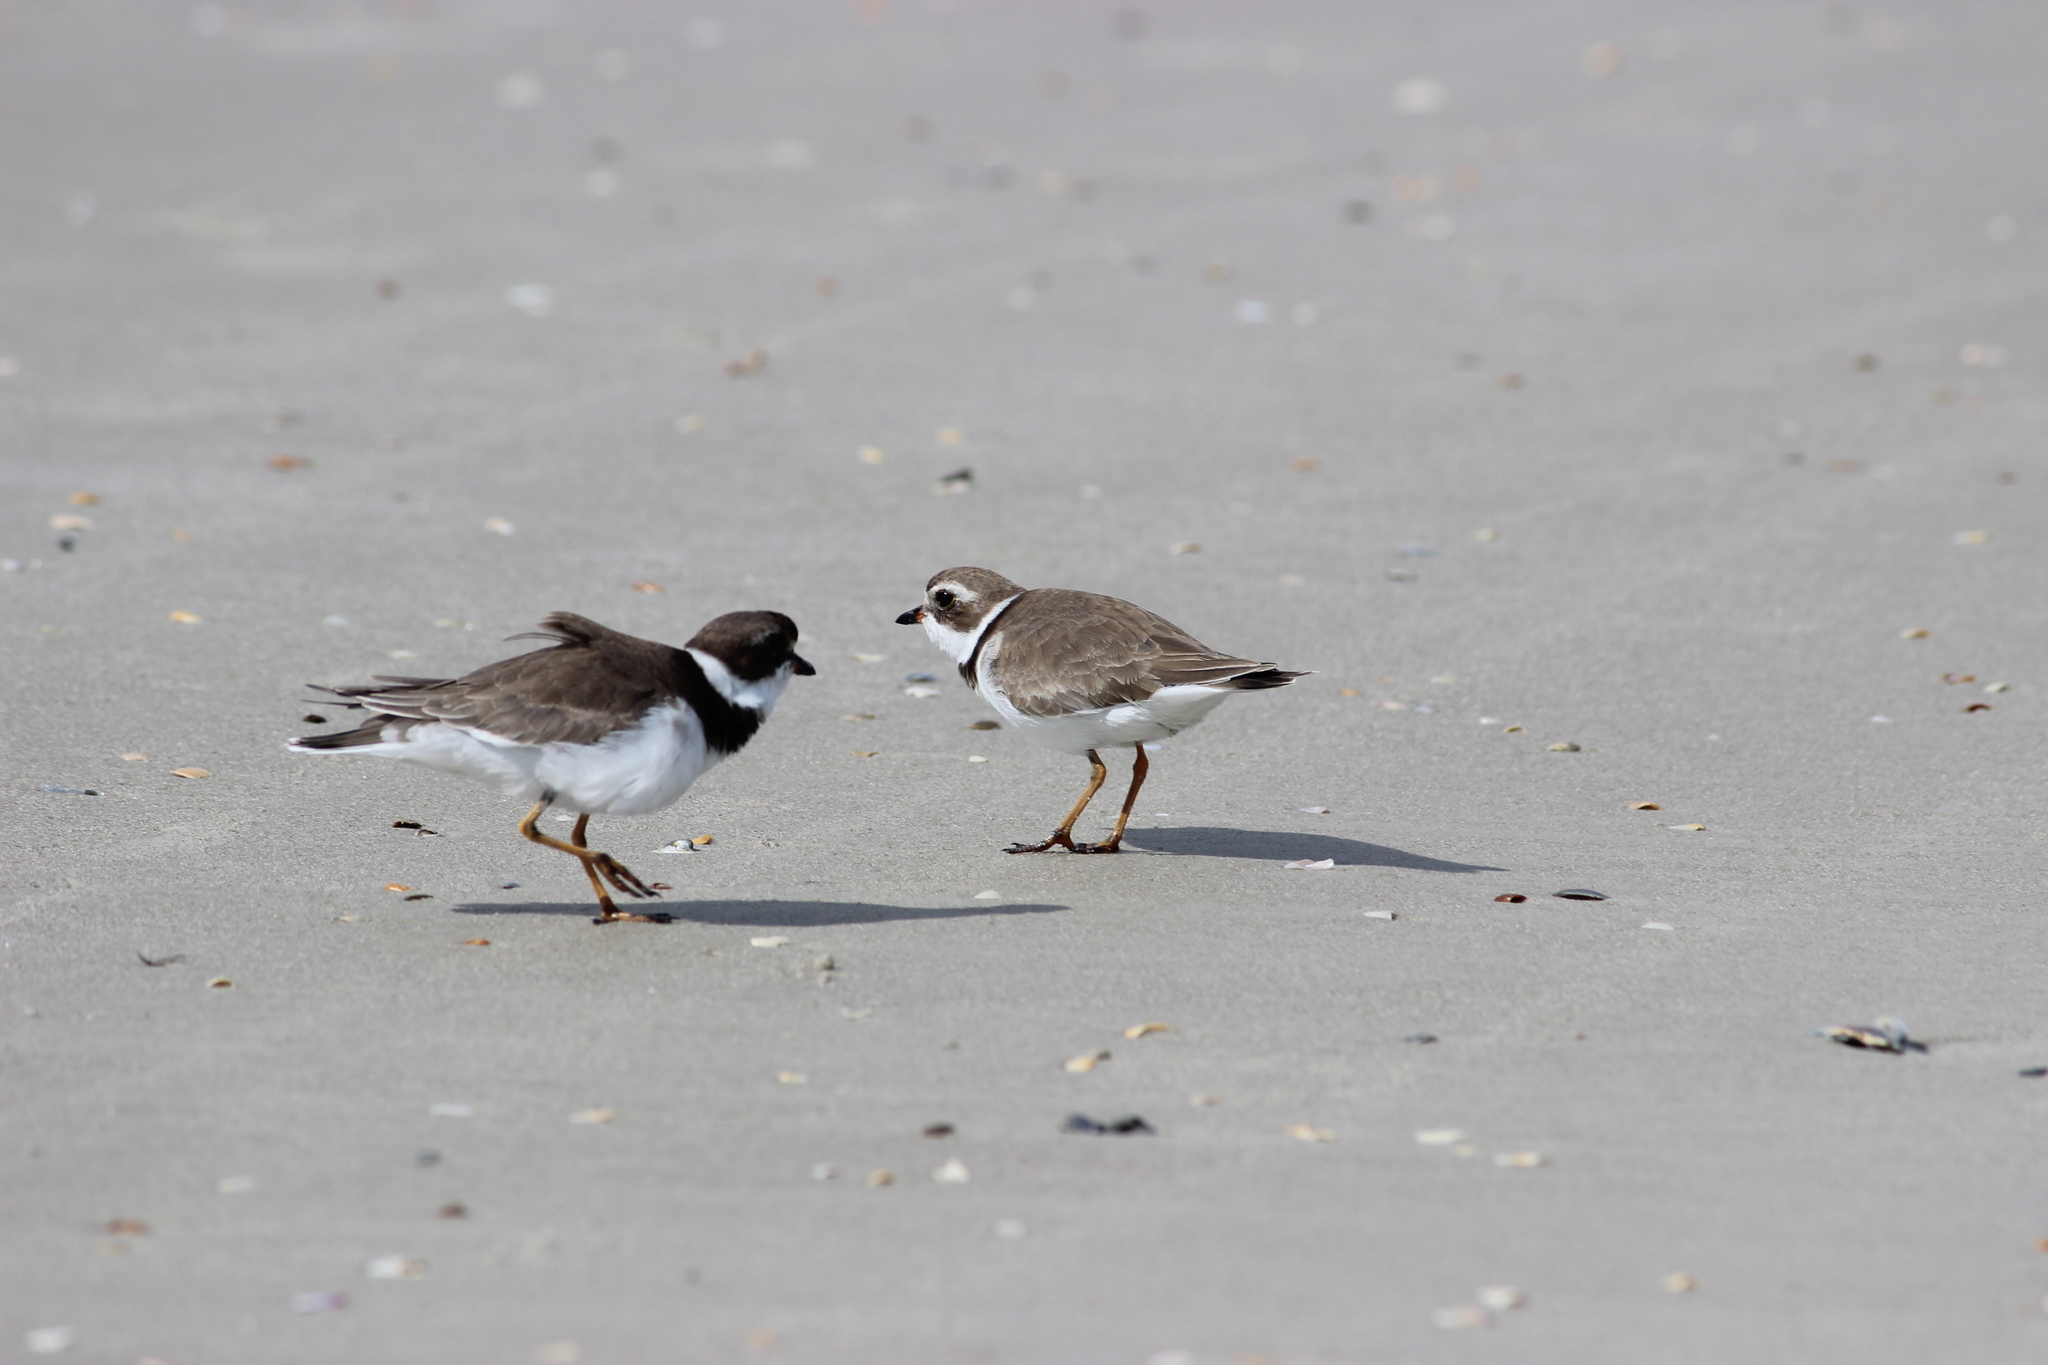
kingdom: Animalia
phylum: Chordata
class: Aves
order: Charadriiformes
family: Charadriidae
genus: Charadrius
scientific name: Charadrius semipalmatus
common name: Semipalmated plover
